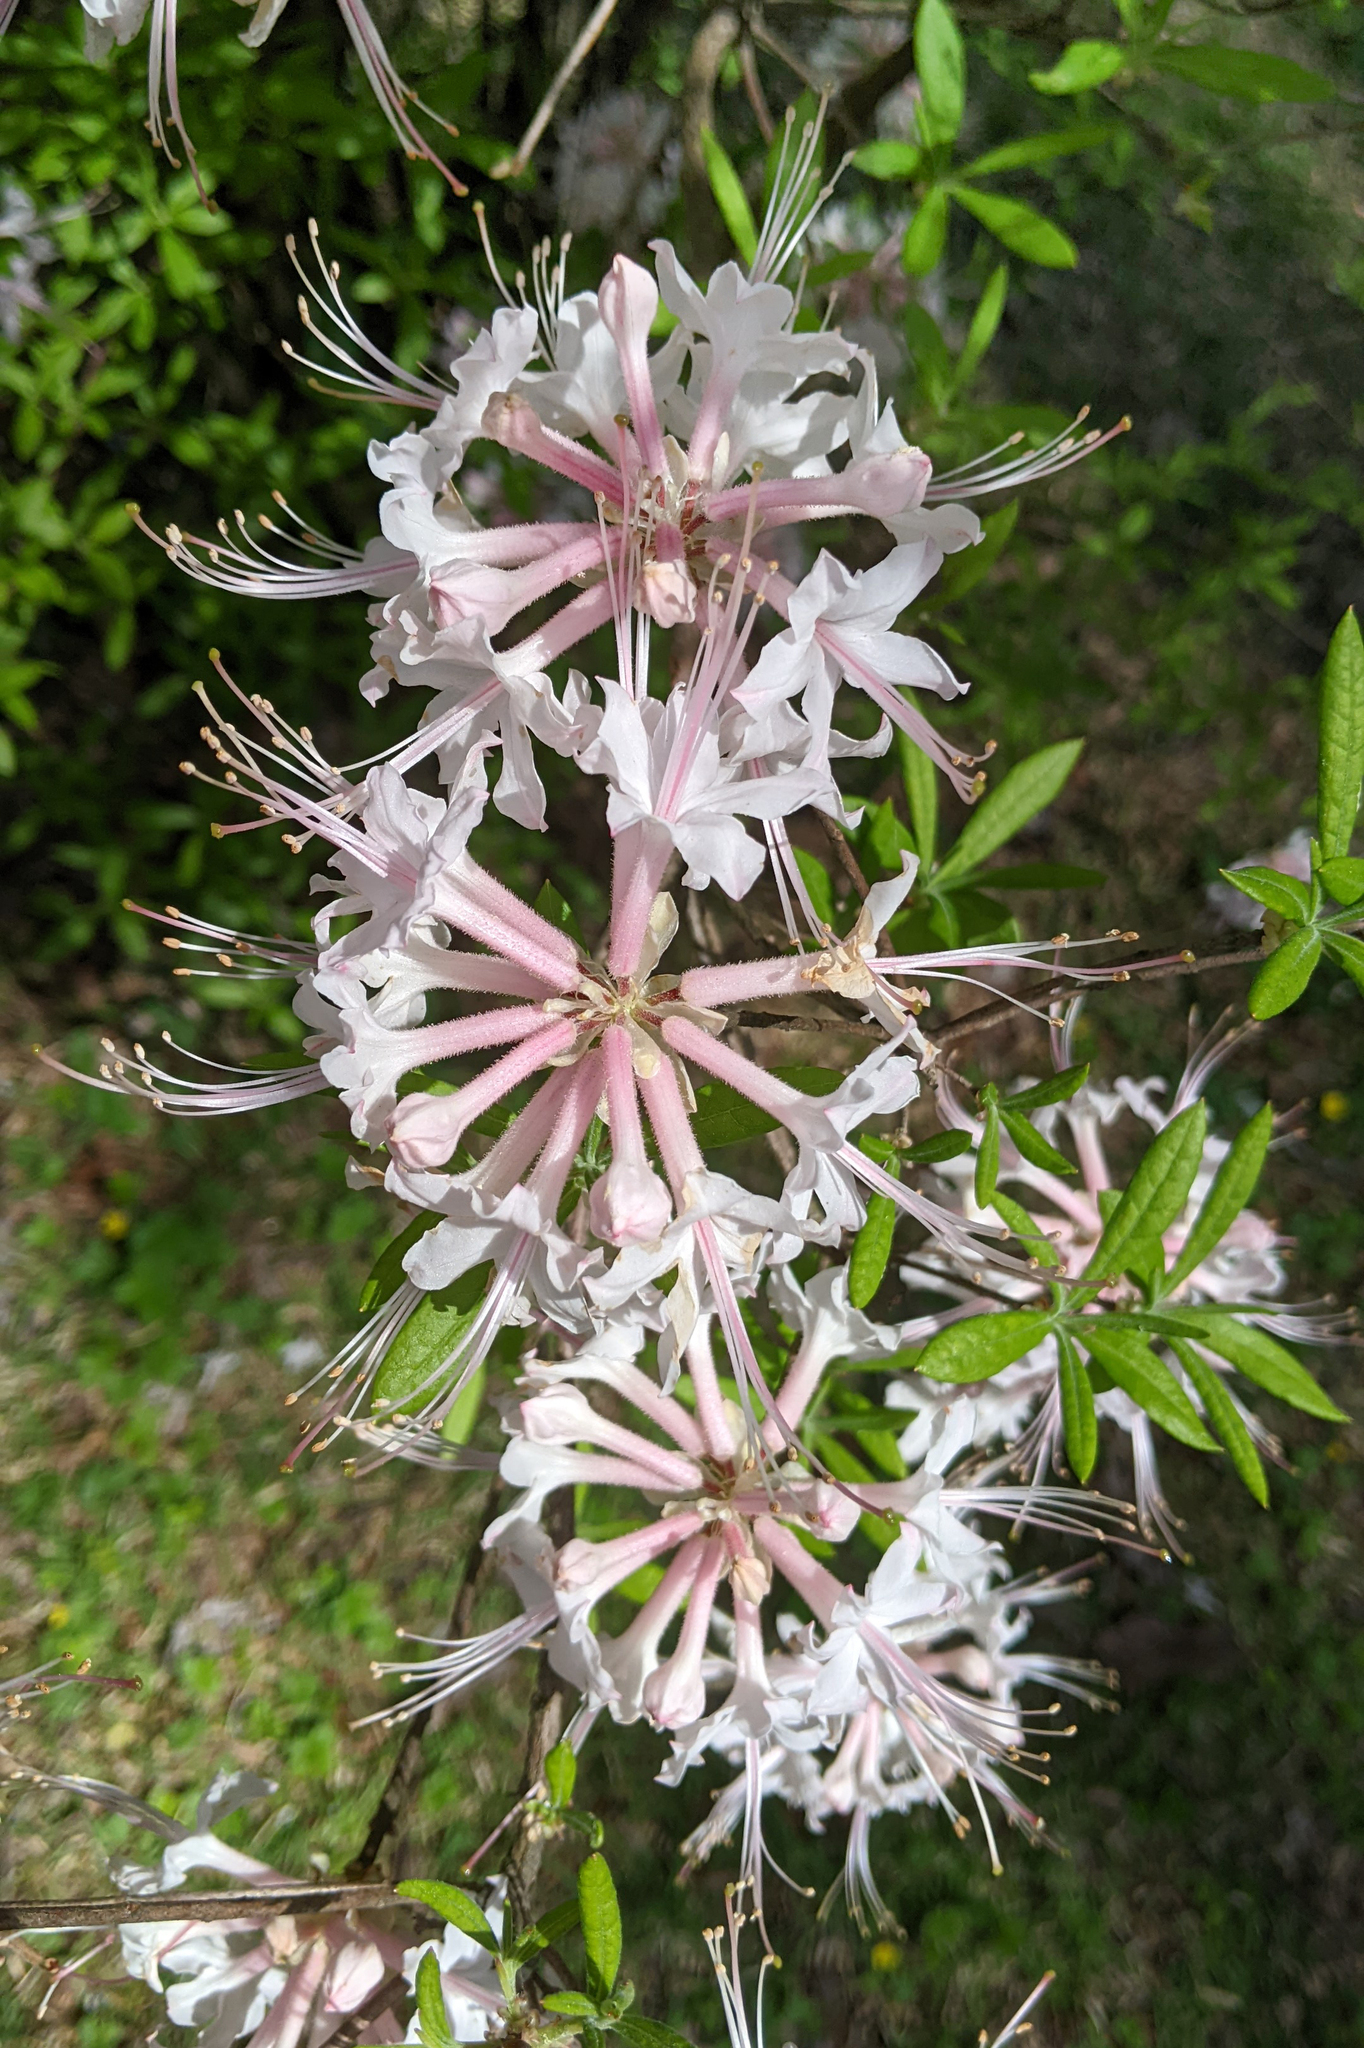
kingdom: Plantae
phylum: Tracheophyta
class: Magnoliopsida
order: Ericales
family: Ericaceae
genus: Rhododendron
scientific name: Rhododendron canescens
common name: Mountain azalea
